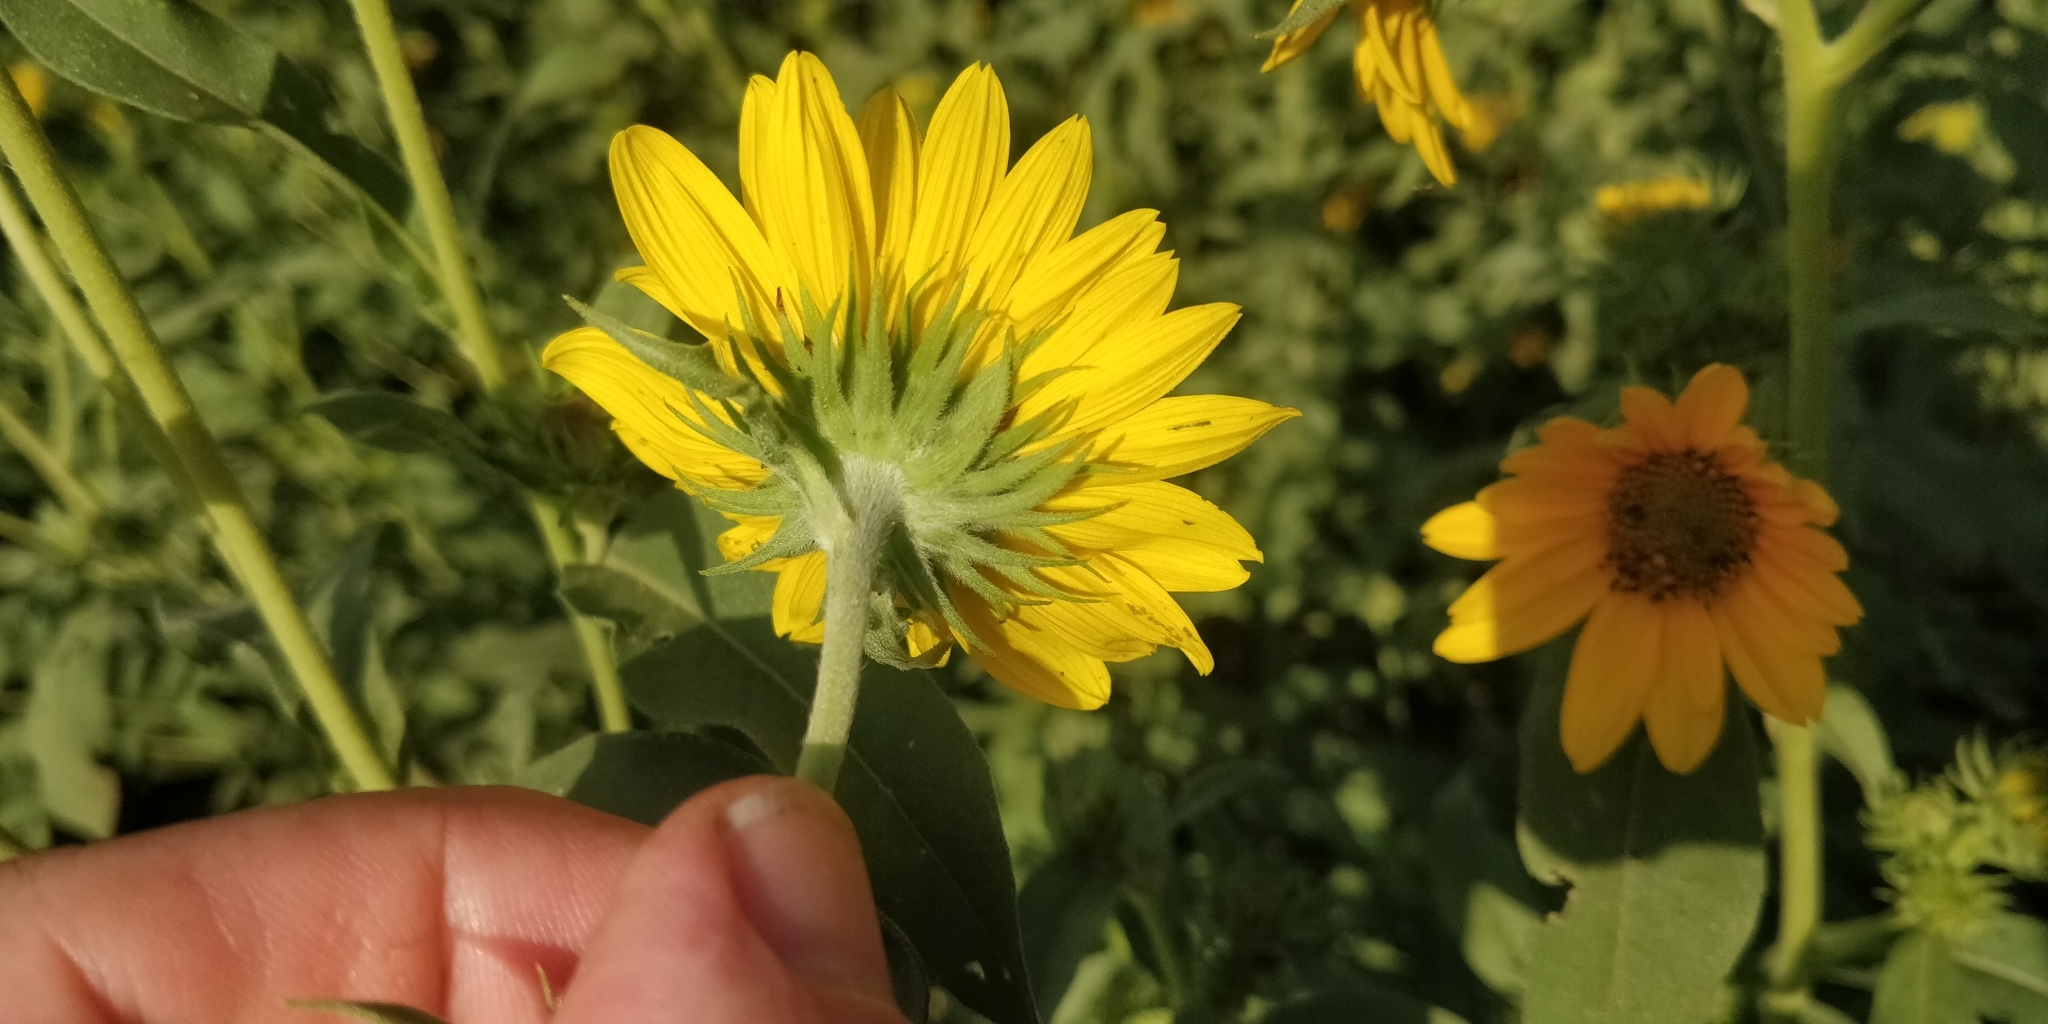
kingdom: Plantae
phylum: Tracheophyta
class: Magnoliopsida
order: Asterales
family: Asteraceae
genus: Helianthus
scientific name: Helianthus maximiliani
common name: Maximilian's sunflower
